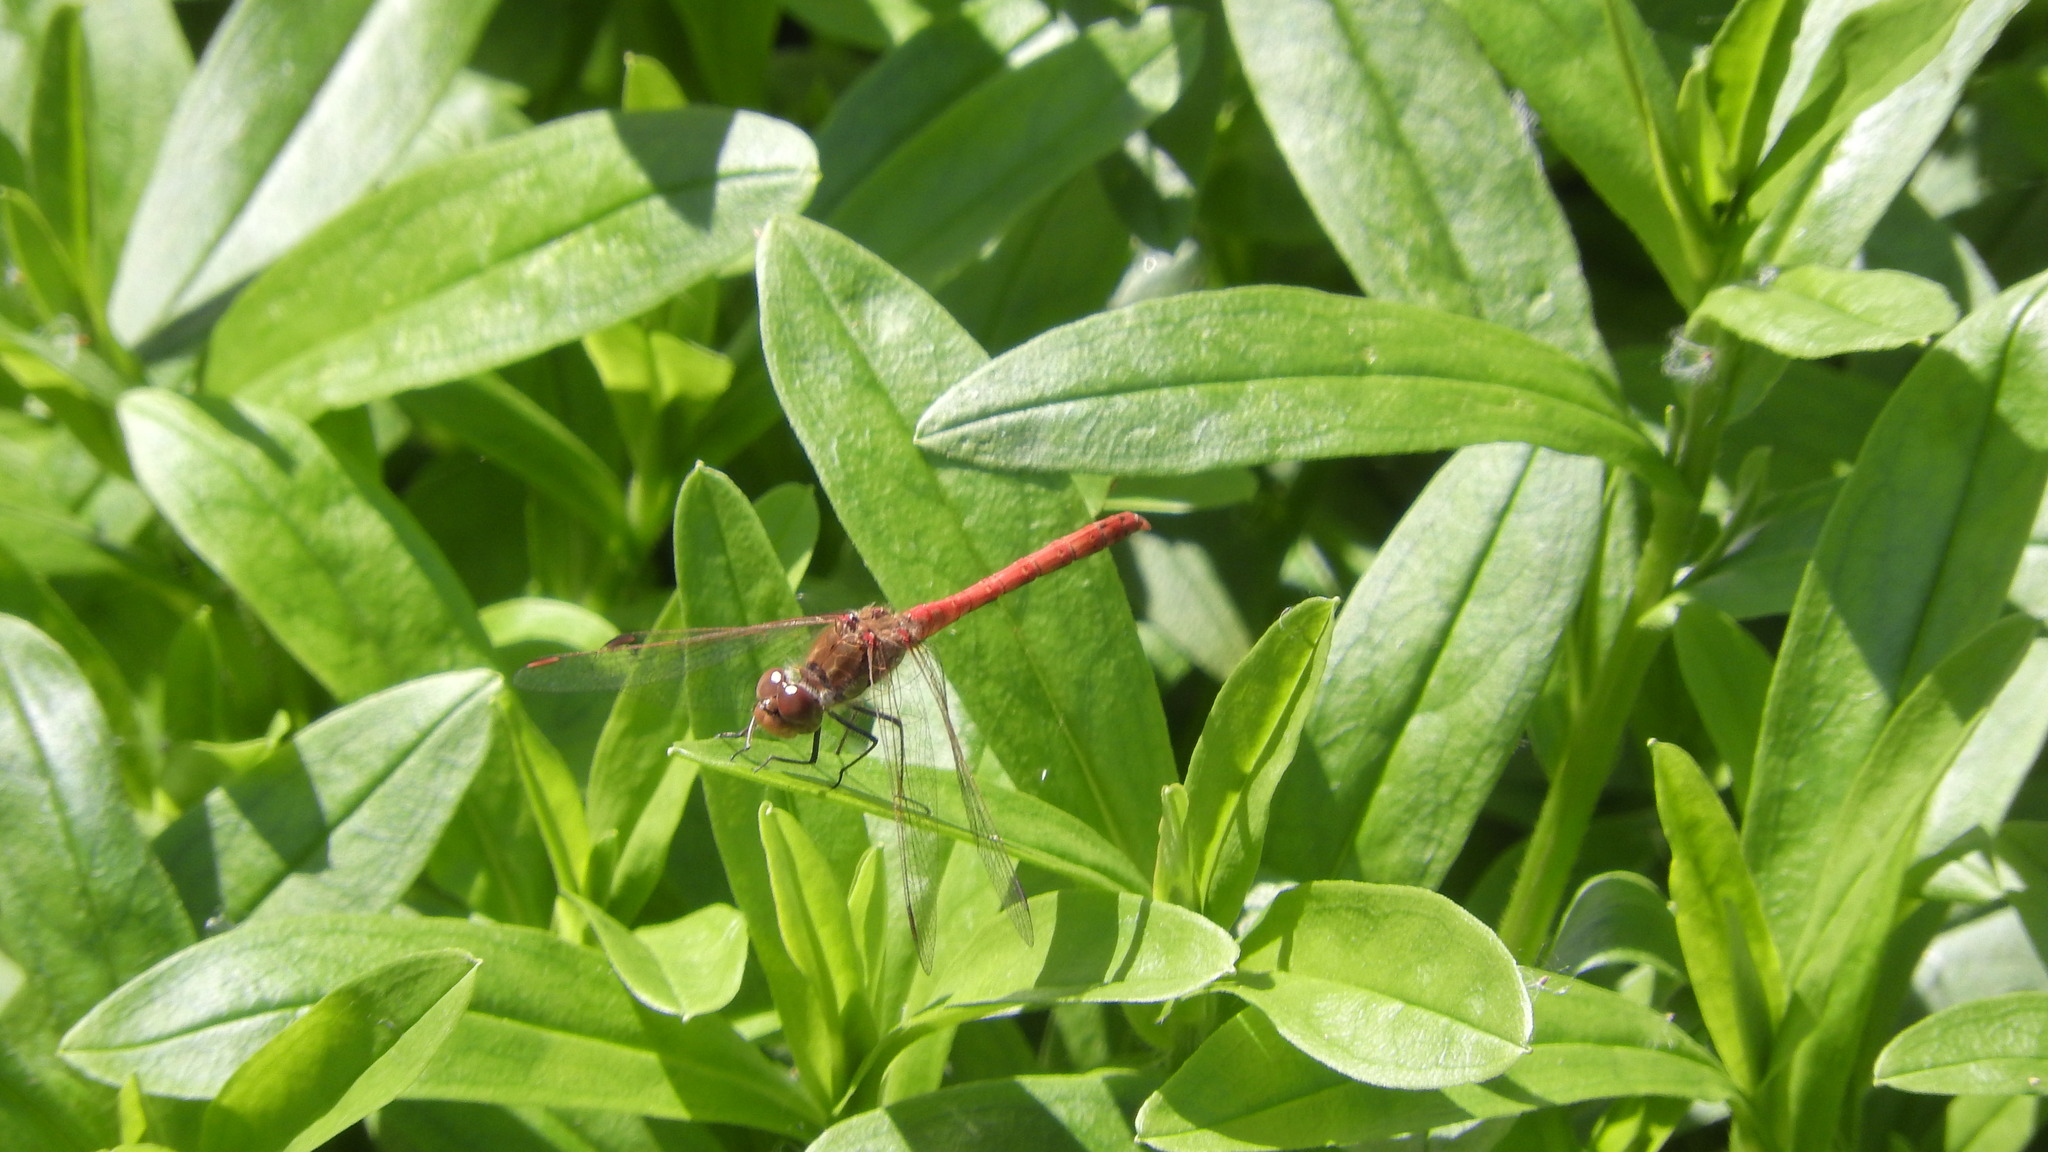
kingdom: Animalia
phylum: Arthropoda
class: Insecta
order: Odonata
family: Libellulidae
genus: Sympetrum
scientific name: Sympetrum sanguineum
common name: Ruddy darter
